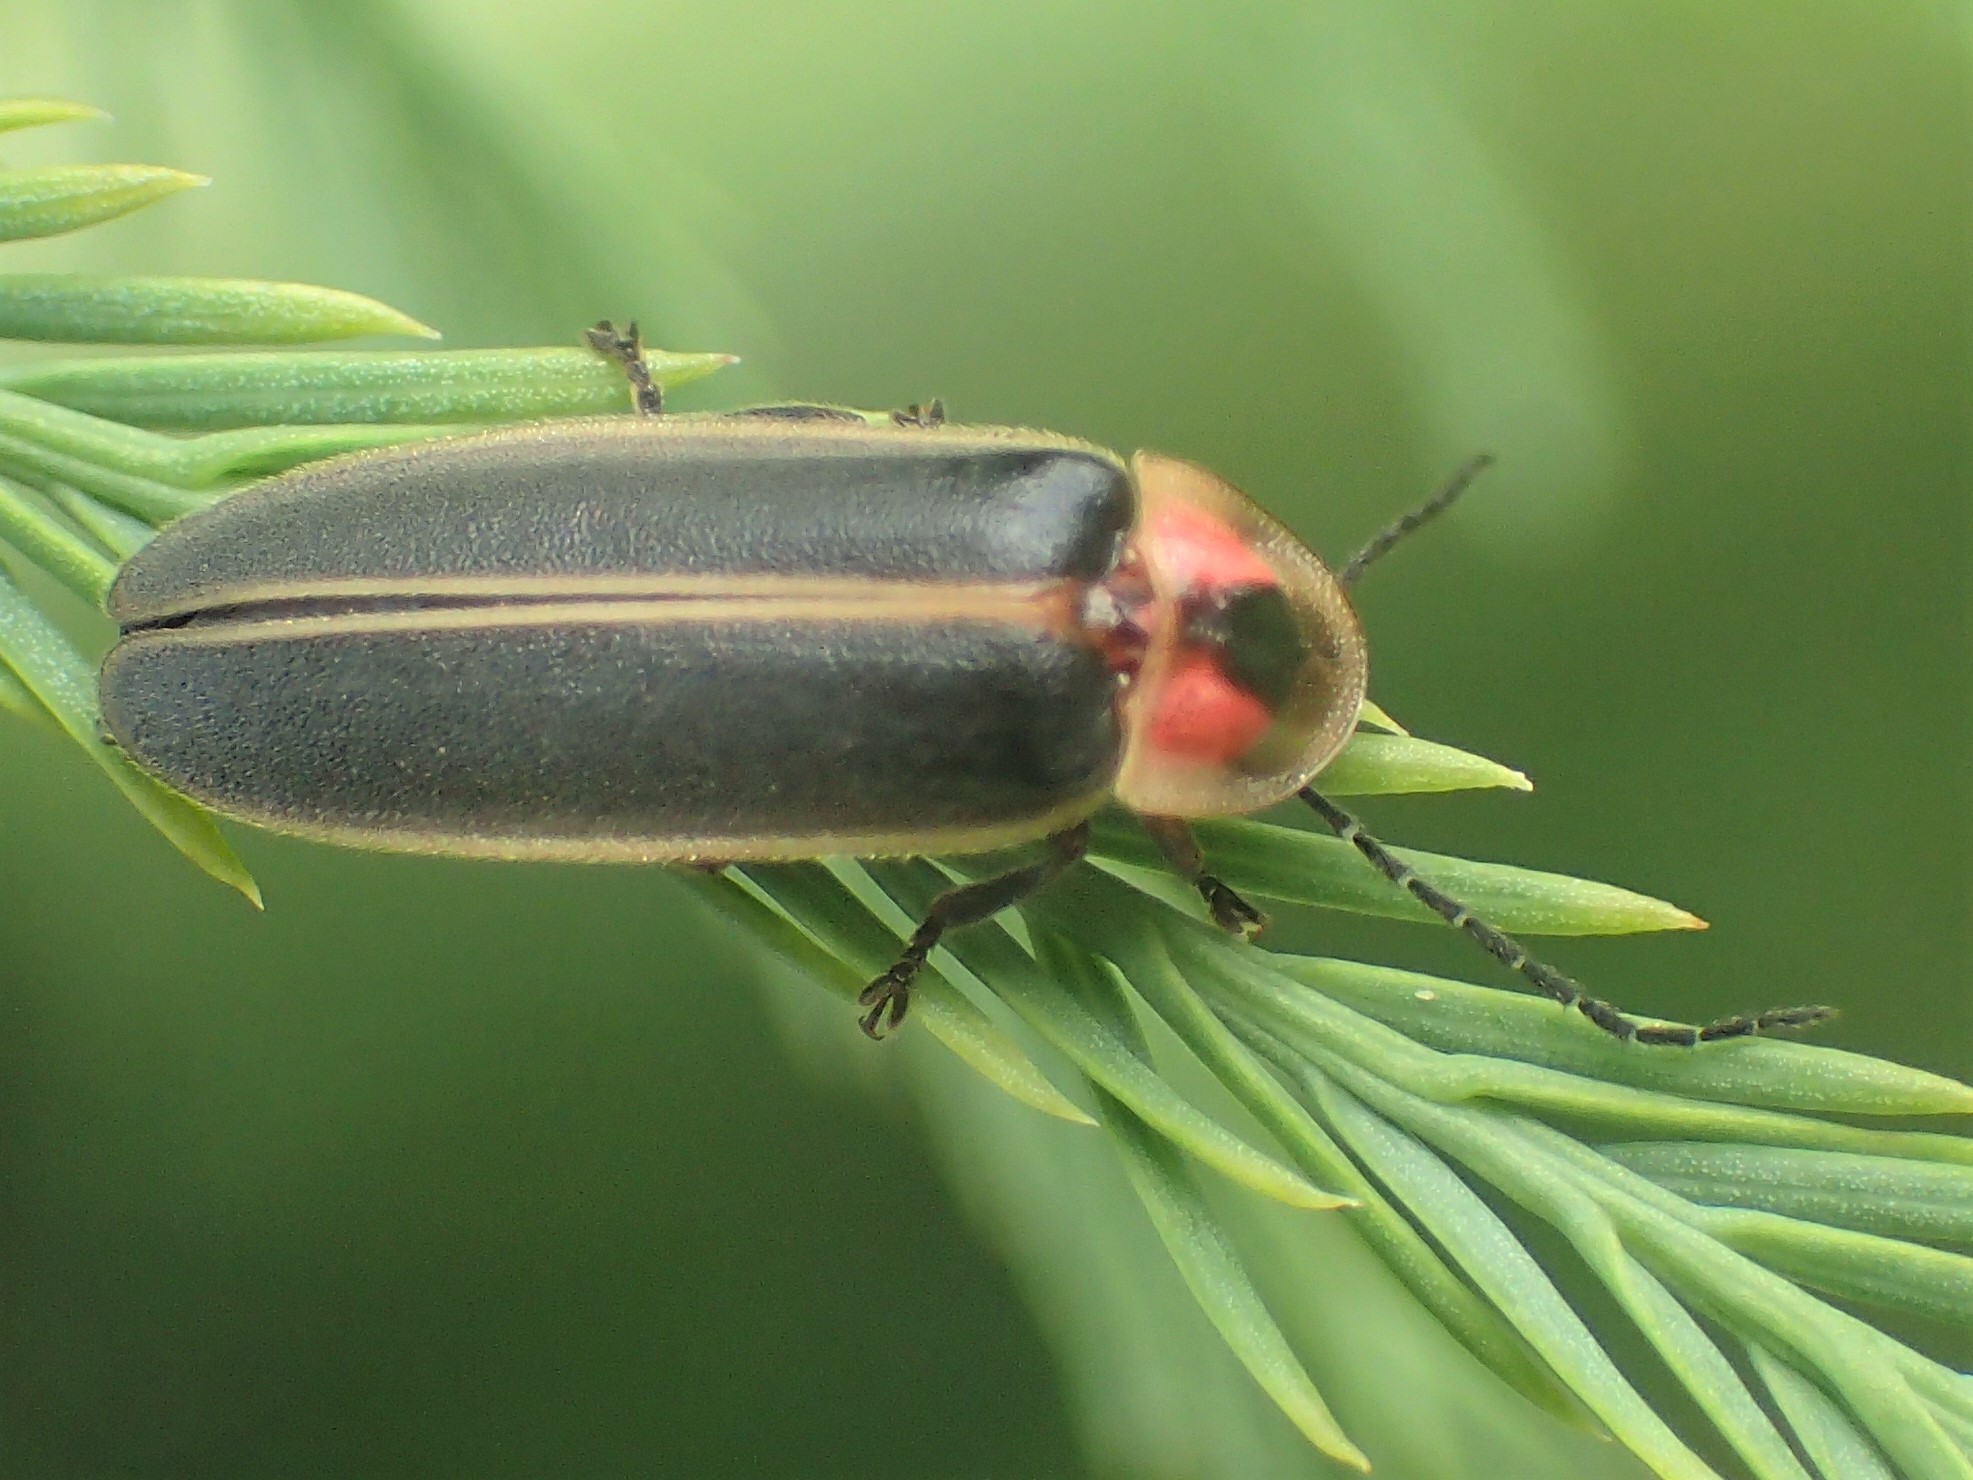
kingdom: Animalia
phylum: Arthropoda
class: Insecta
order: Coleoptera
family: Lampyridae
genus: Photinus
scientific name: Photinus pyralis
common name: Big dipper firefly
